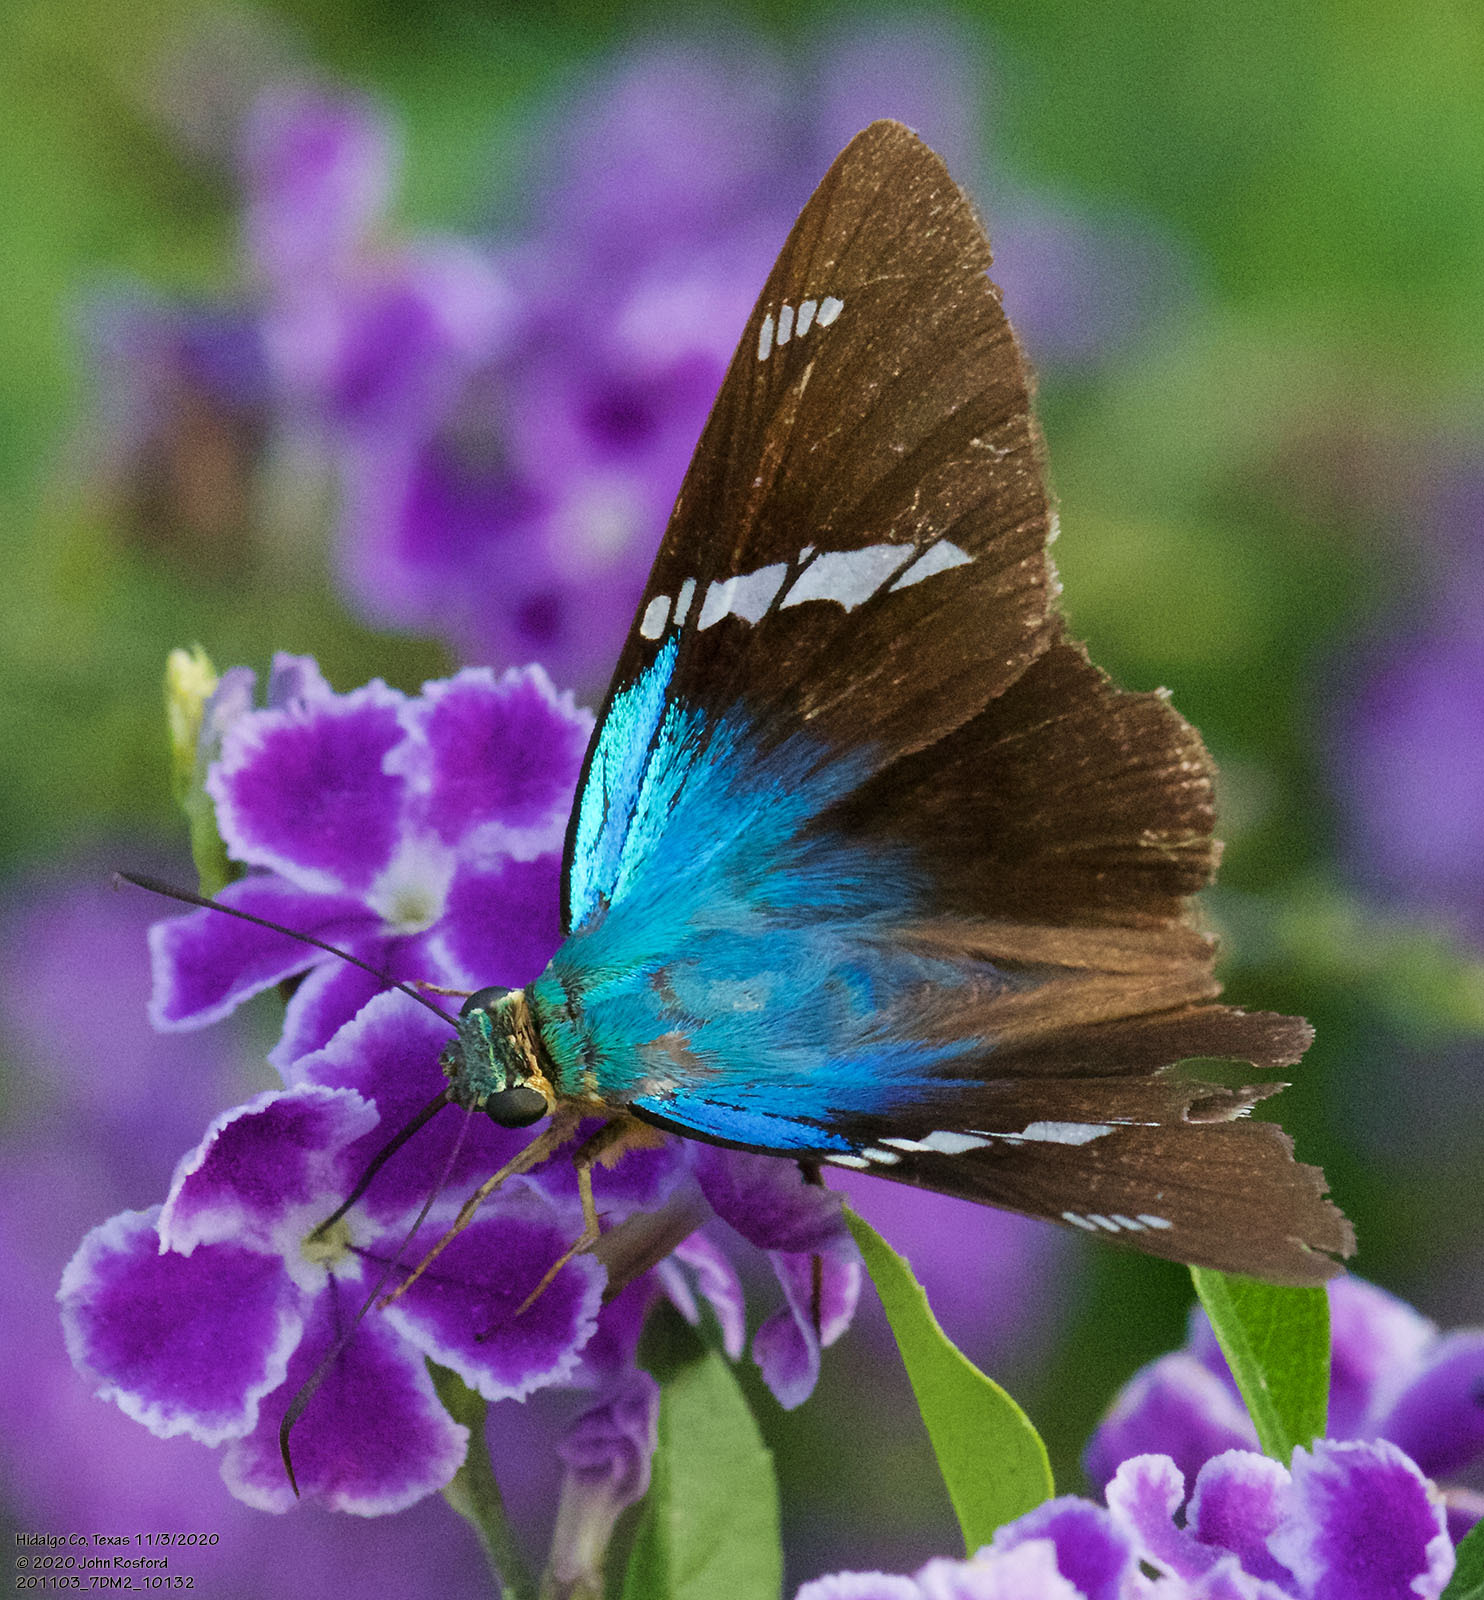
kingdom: Animalia
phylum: Arthropoda
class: Insecta
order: Lepidoptera
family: Hesperiidae
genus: Astraptes
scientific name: Astraptes fulgerator
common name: Two-barred flasher
